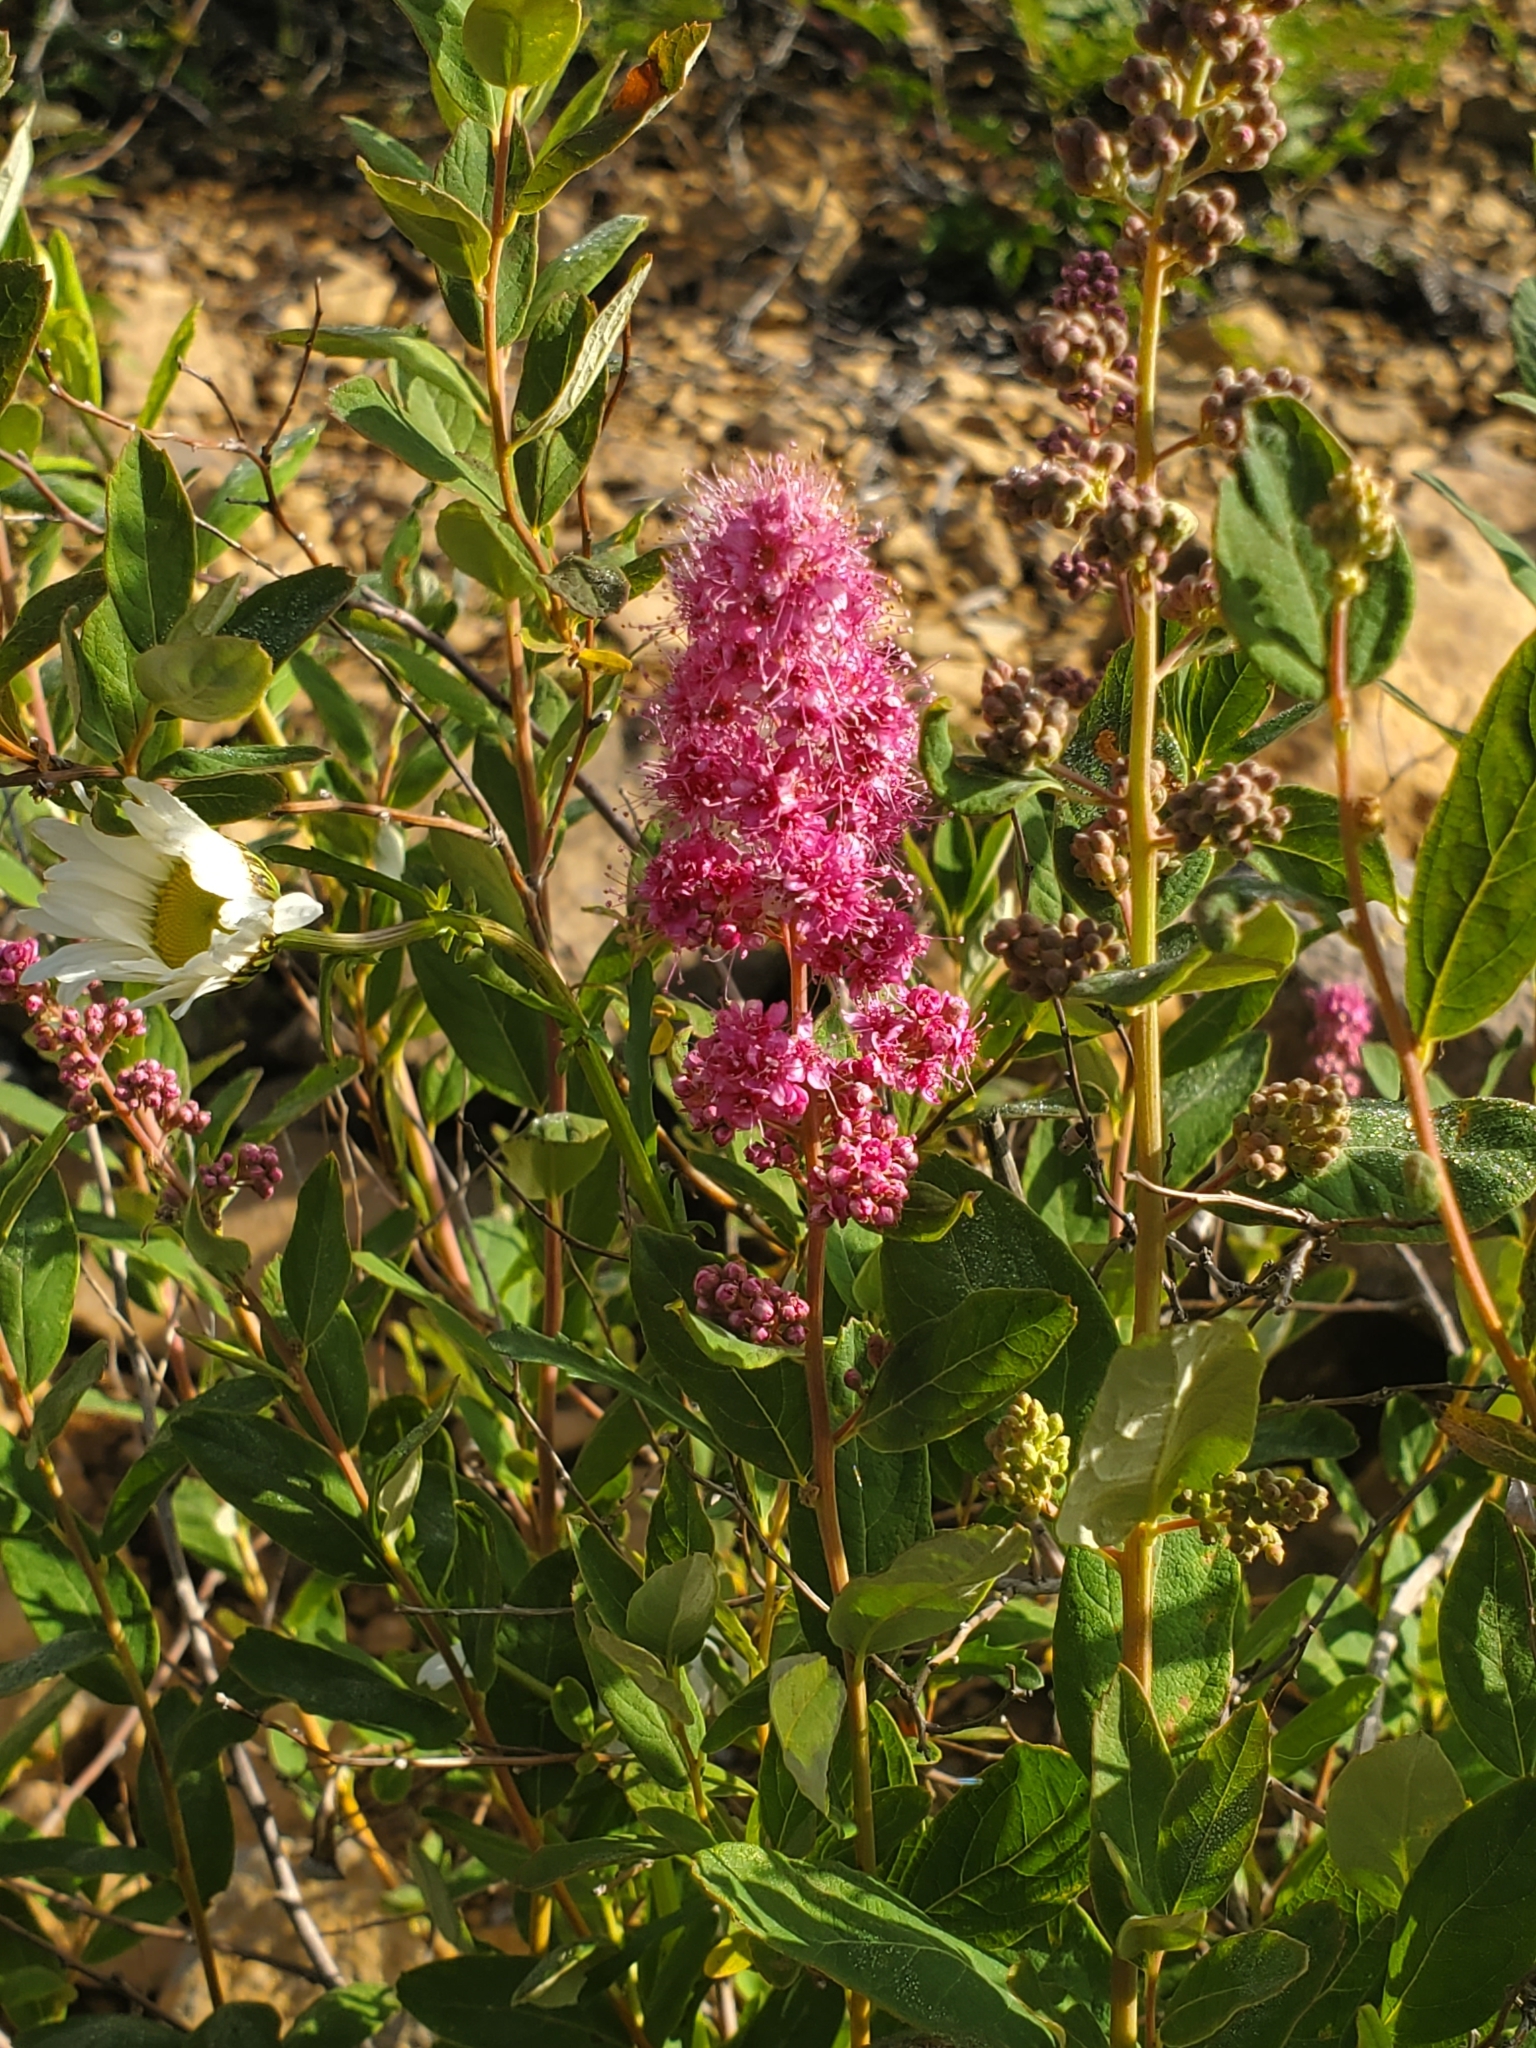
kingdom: Plantae
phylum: Tracheophyta
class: Magnoliopsida
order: Rosales
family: Rosaceae
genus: Spiraea
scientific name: Spiraea douglasii
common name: Steeplebush
